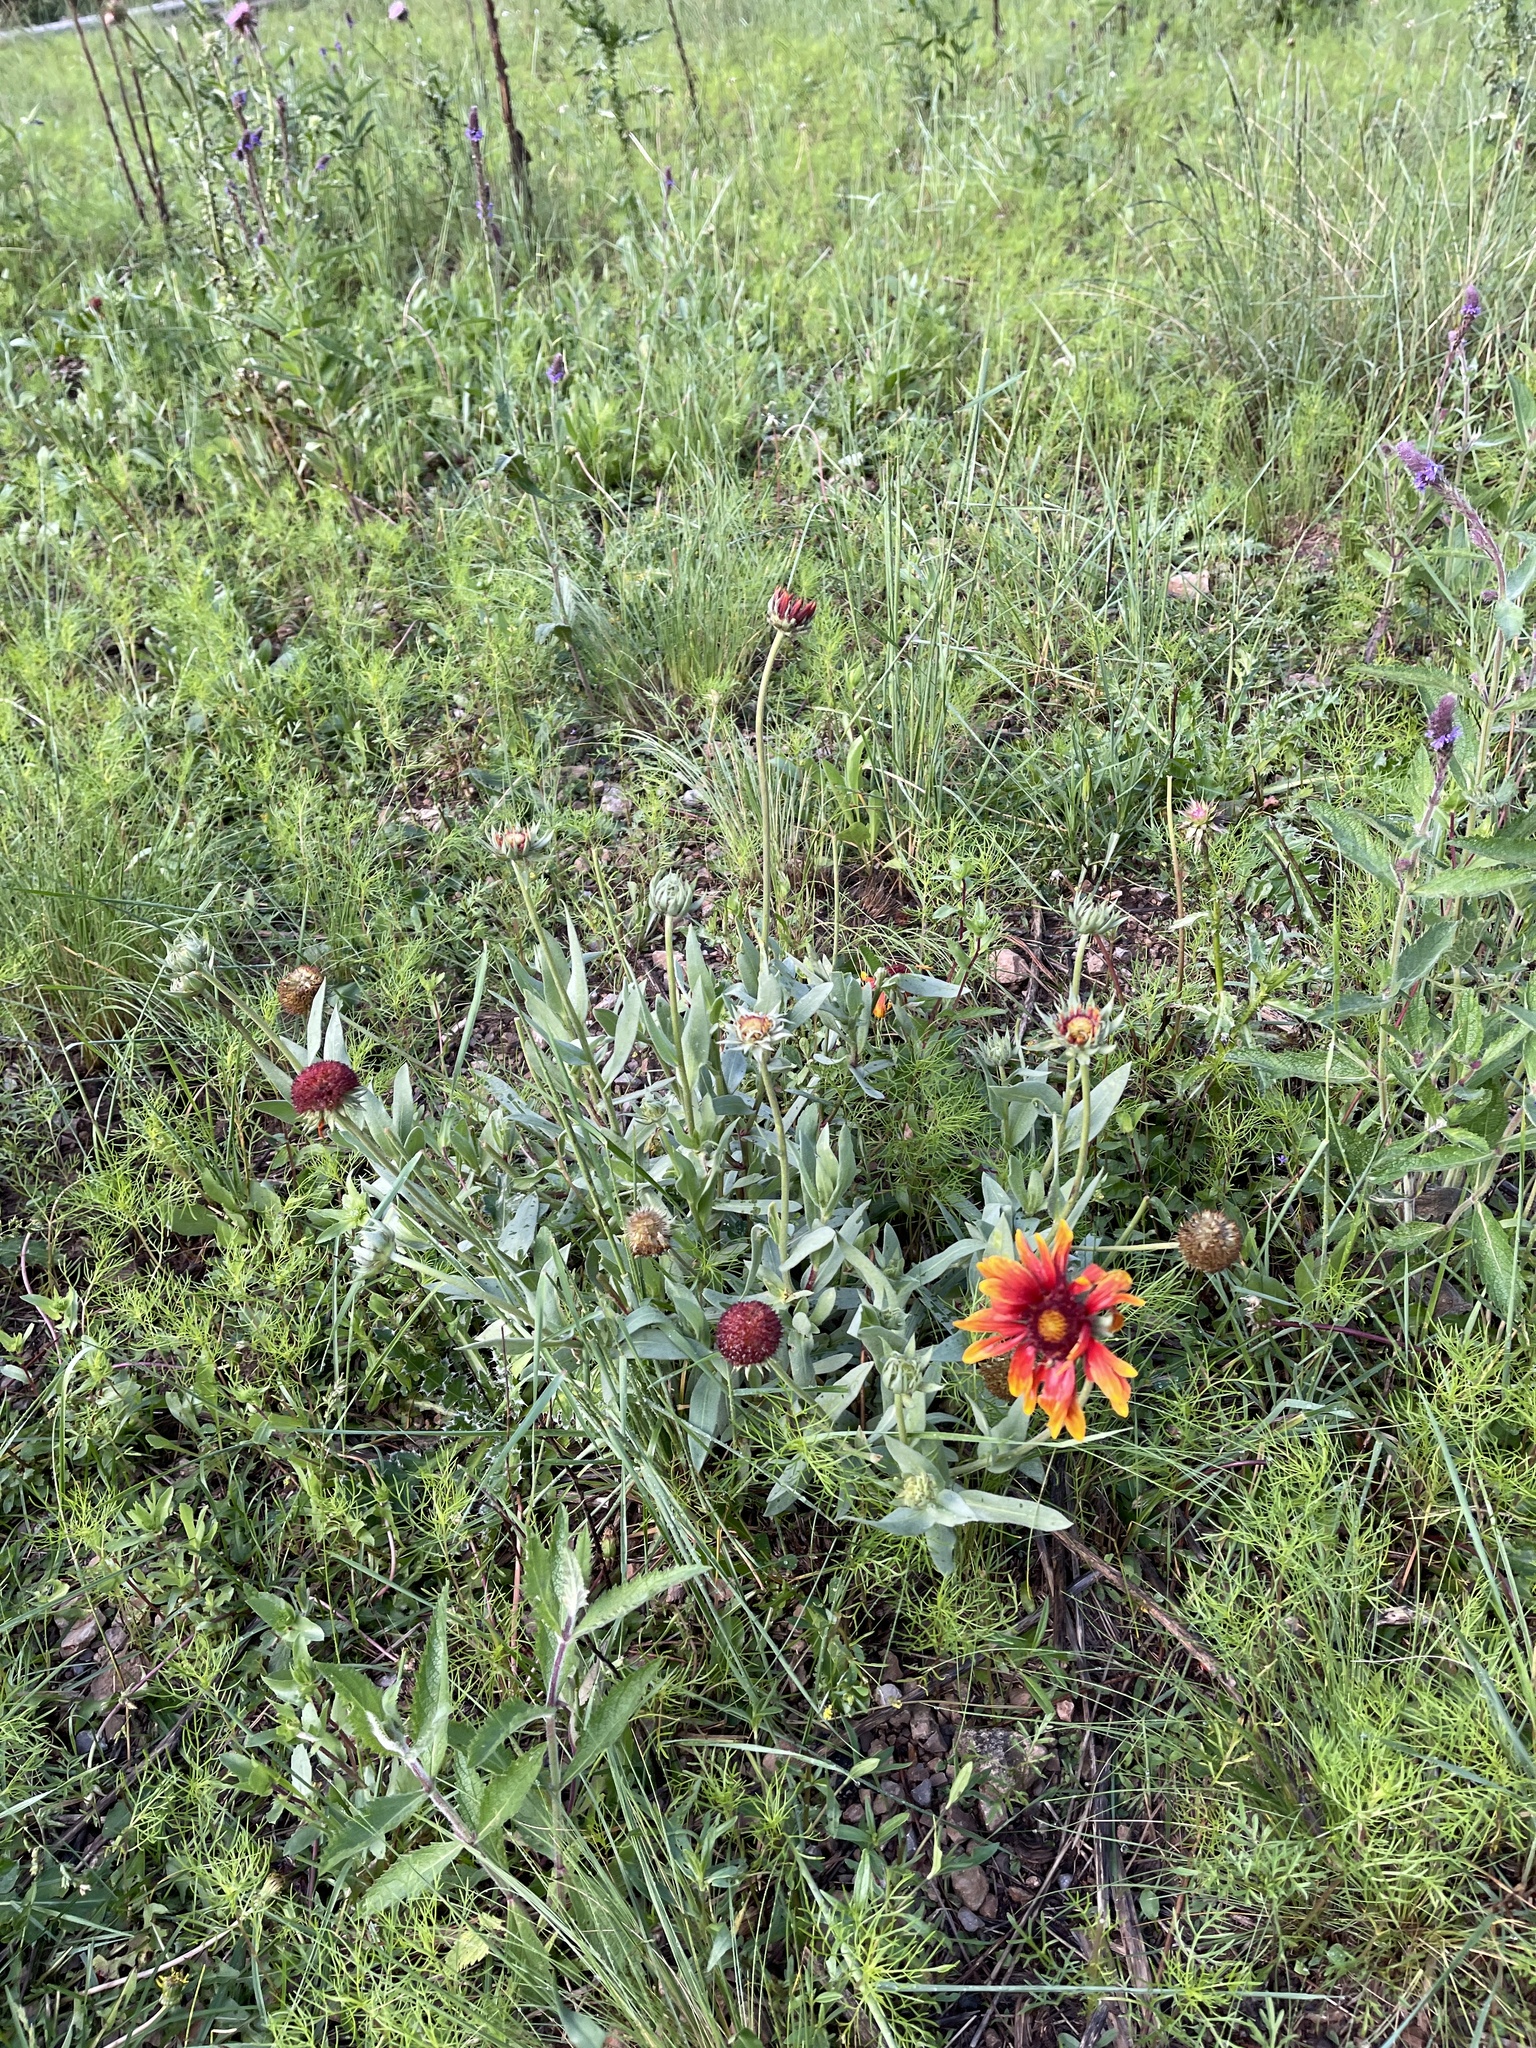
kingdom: Plantae
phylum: Tracheophyta
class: Magnoliopsida
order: Asterales
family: Asteraceae
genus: Gaillardia
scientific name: Gaillardia pulchella
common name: Firewheel
